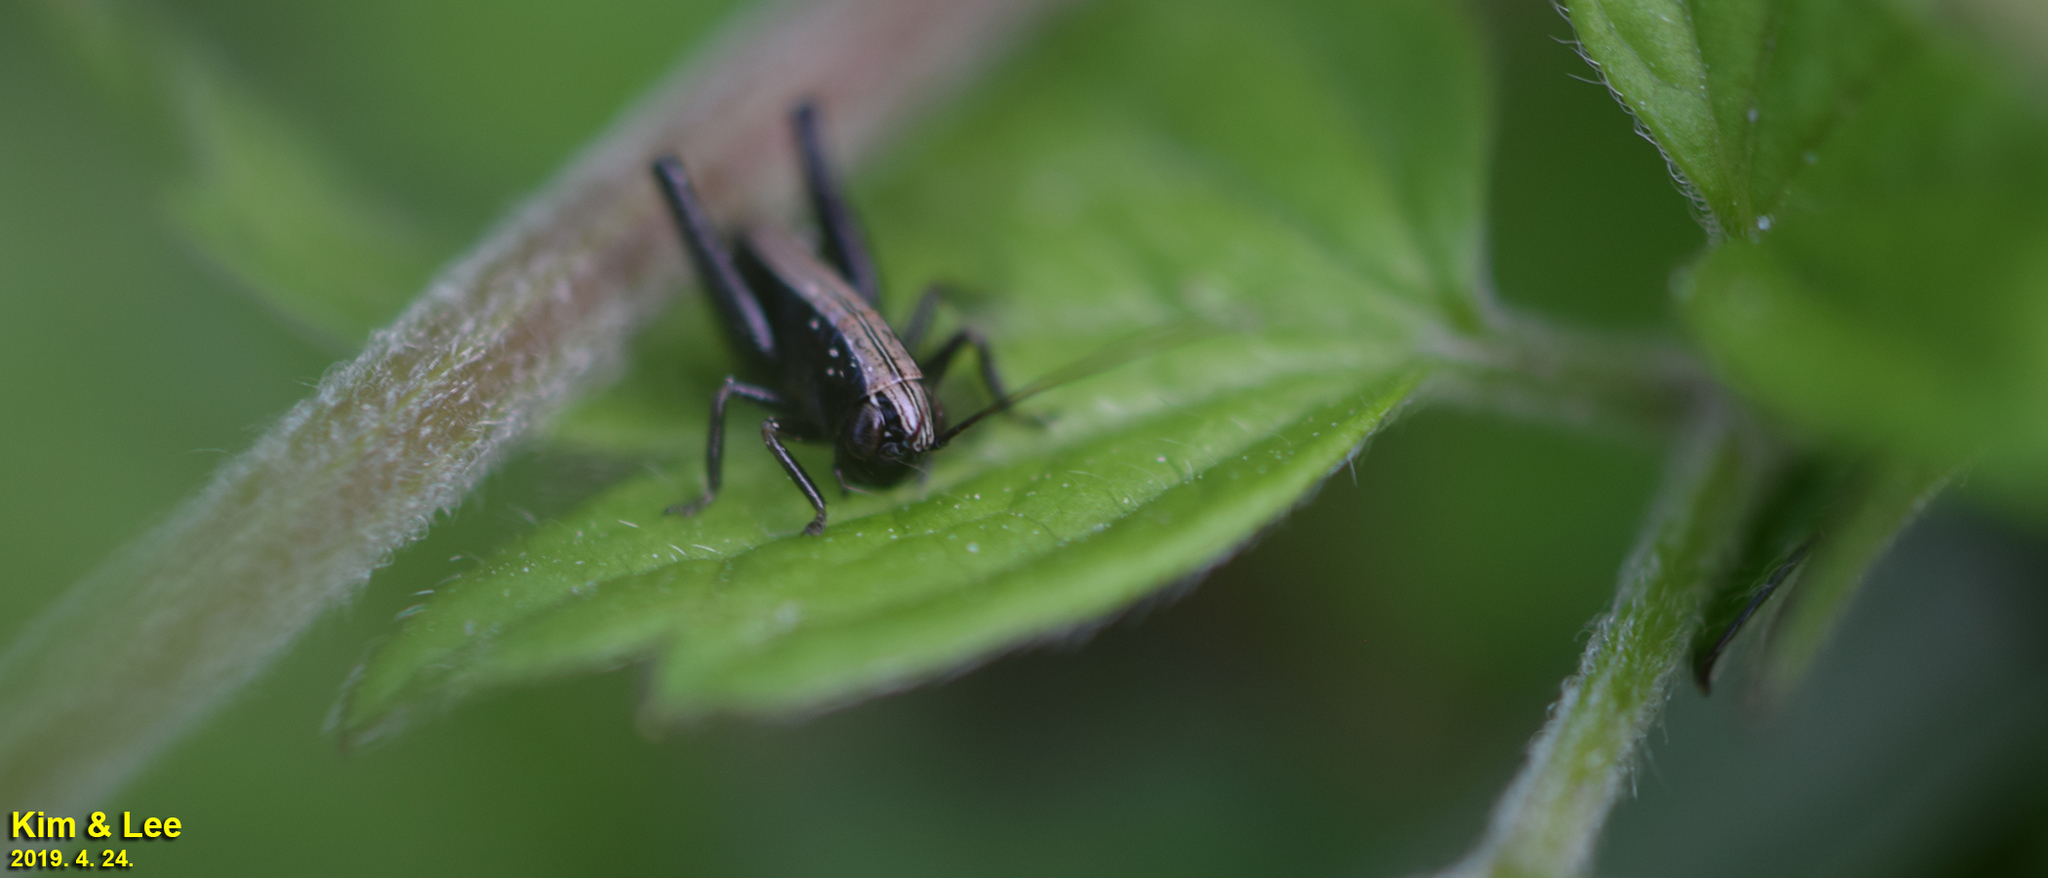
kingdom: Animalia
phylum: Arthropoda
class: Insecta
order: Orthoptera
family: Tettigoniidae
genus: Chizuella
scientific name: Chizuella bonneti
